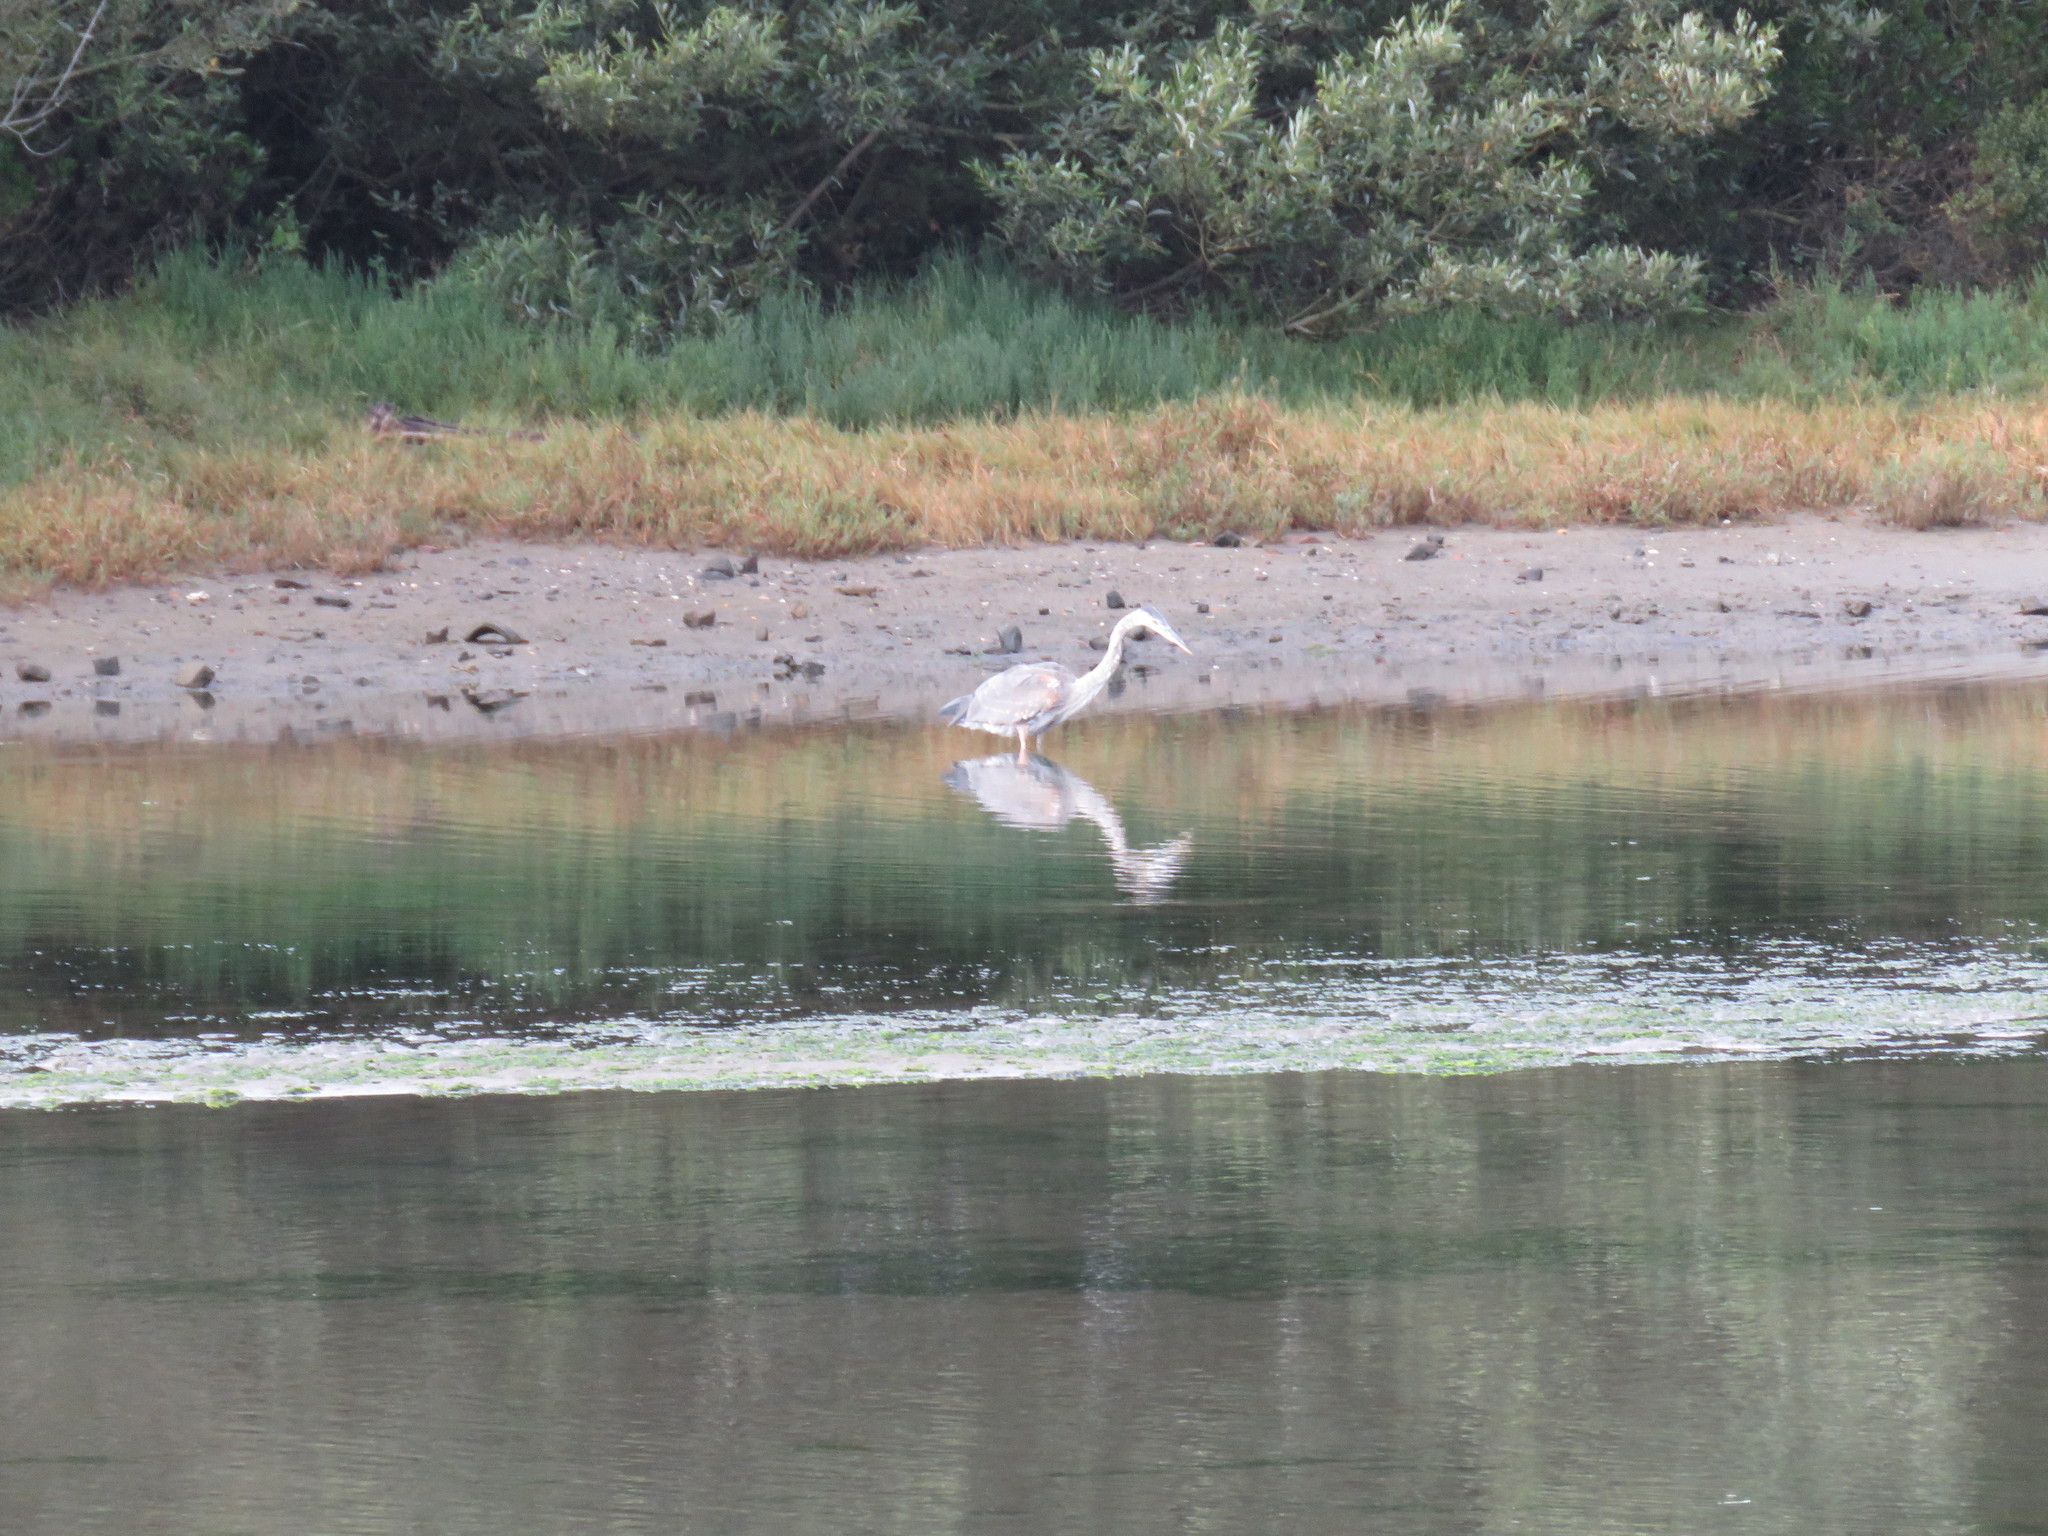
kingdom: Animalia
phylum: Chordata
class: Aves
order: Pelecaniformes
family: Ardeidae
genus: Ardea
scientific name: Ardea herodias
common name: Great blue heron
